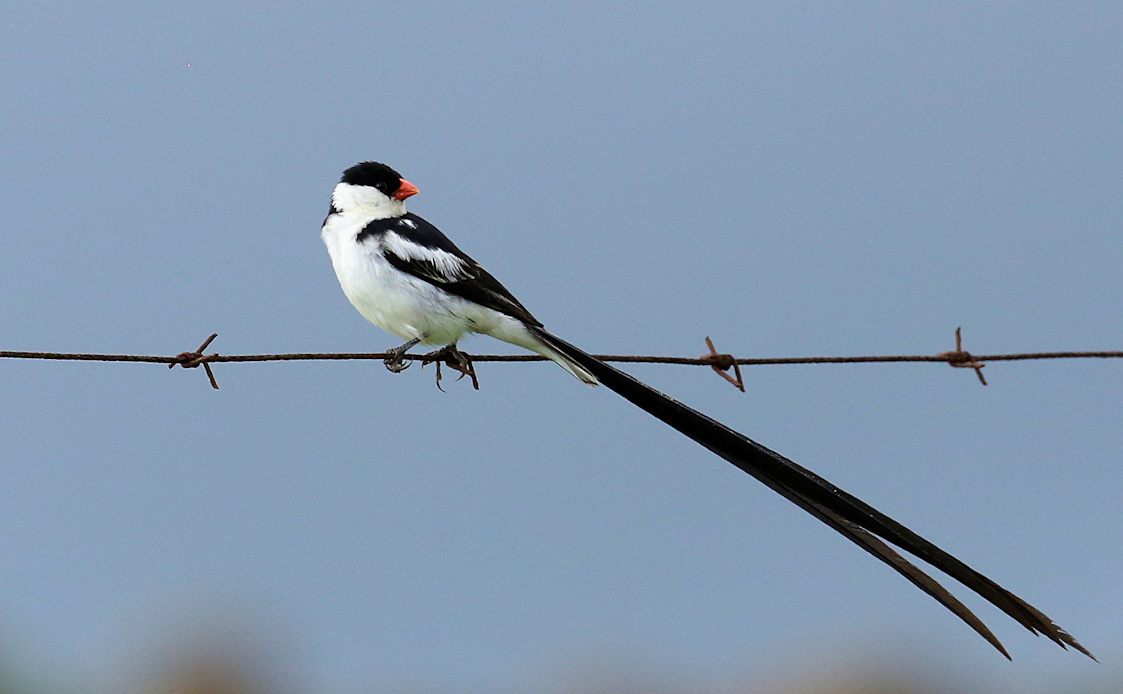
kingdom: Animalia
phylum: Chordata
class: Aves
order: Passeriformes
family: Viduidae
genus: Vidua
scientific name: Vidua macroura
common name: Pin-tailed whydah
